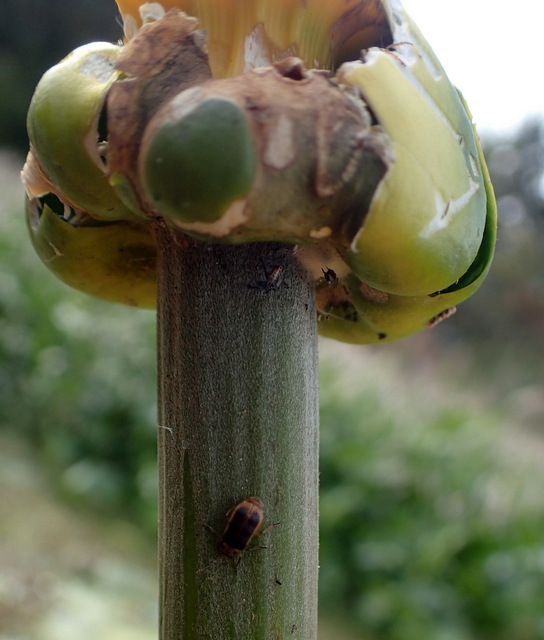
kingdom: Animalia
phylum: Arthropoda
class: Insecta
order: Coleoptera
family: Chrysomelidae
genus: Galerucella
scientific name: Galerucella nymphaeae
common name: Leaf beetle
